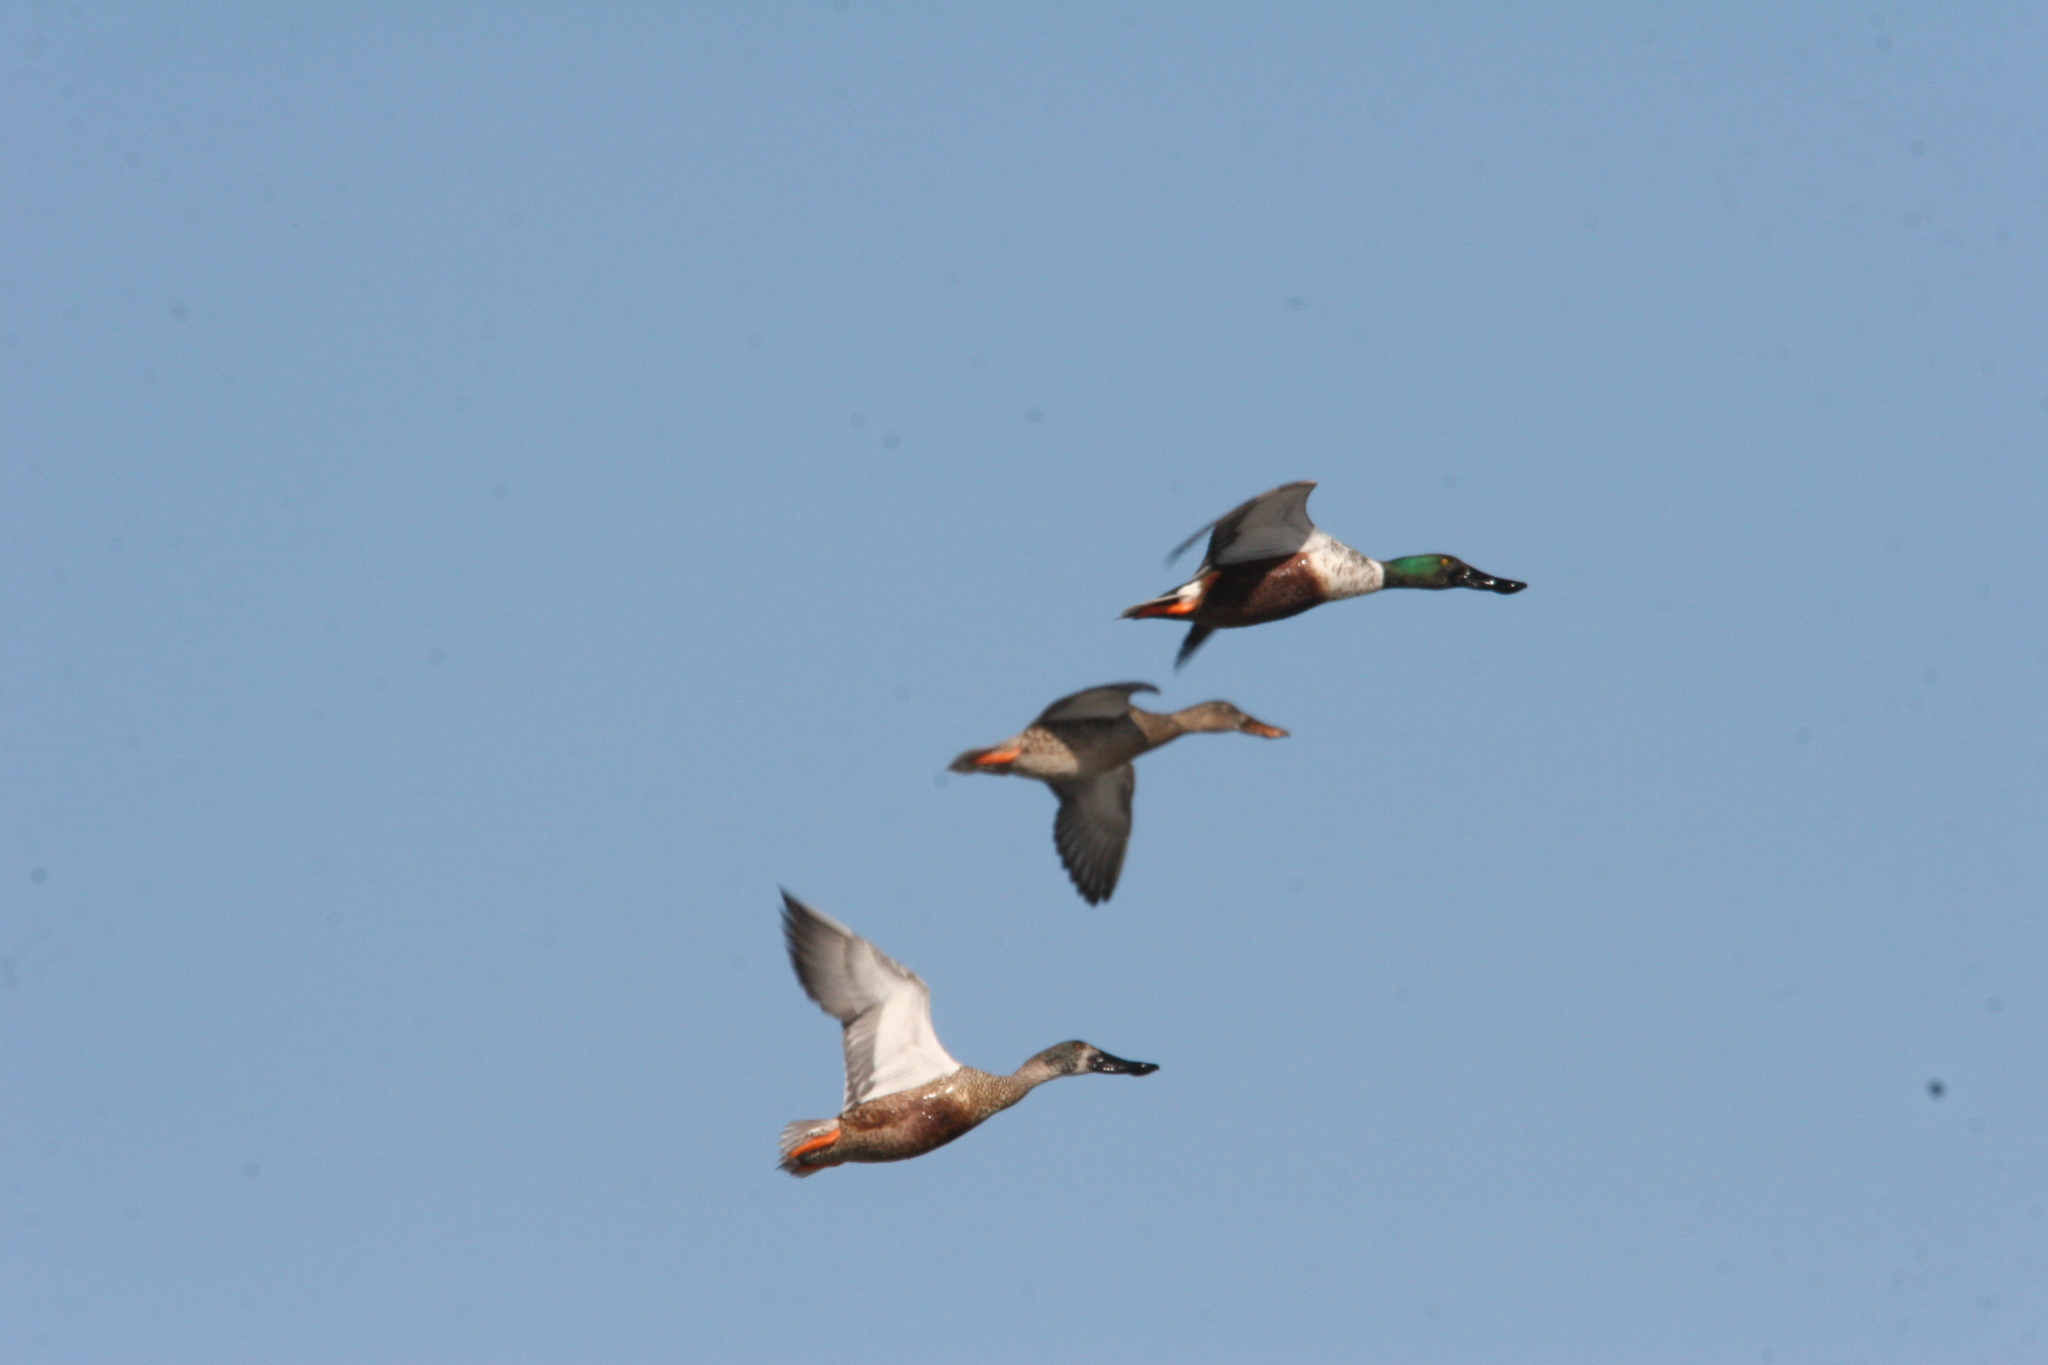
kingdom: Animalia
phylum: Chordata
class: Aves
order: Anseriformes
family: Anatidae
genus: Spatula
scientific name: Spatula clypeata
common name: Northern shoveler
